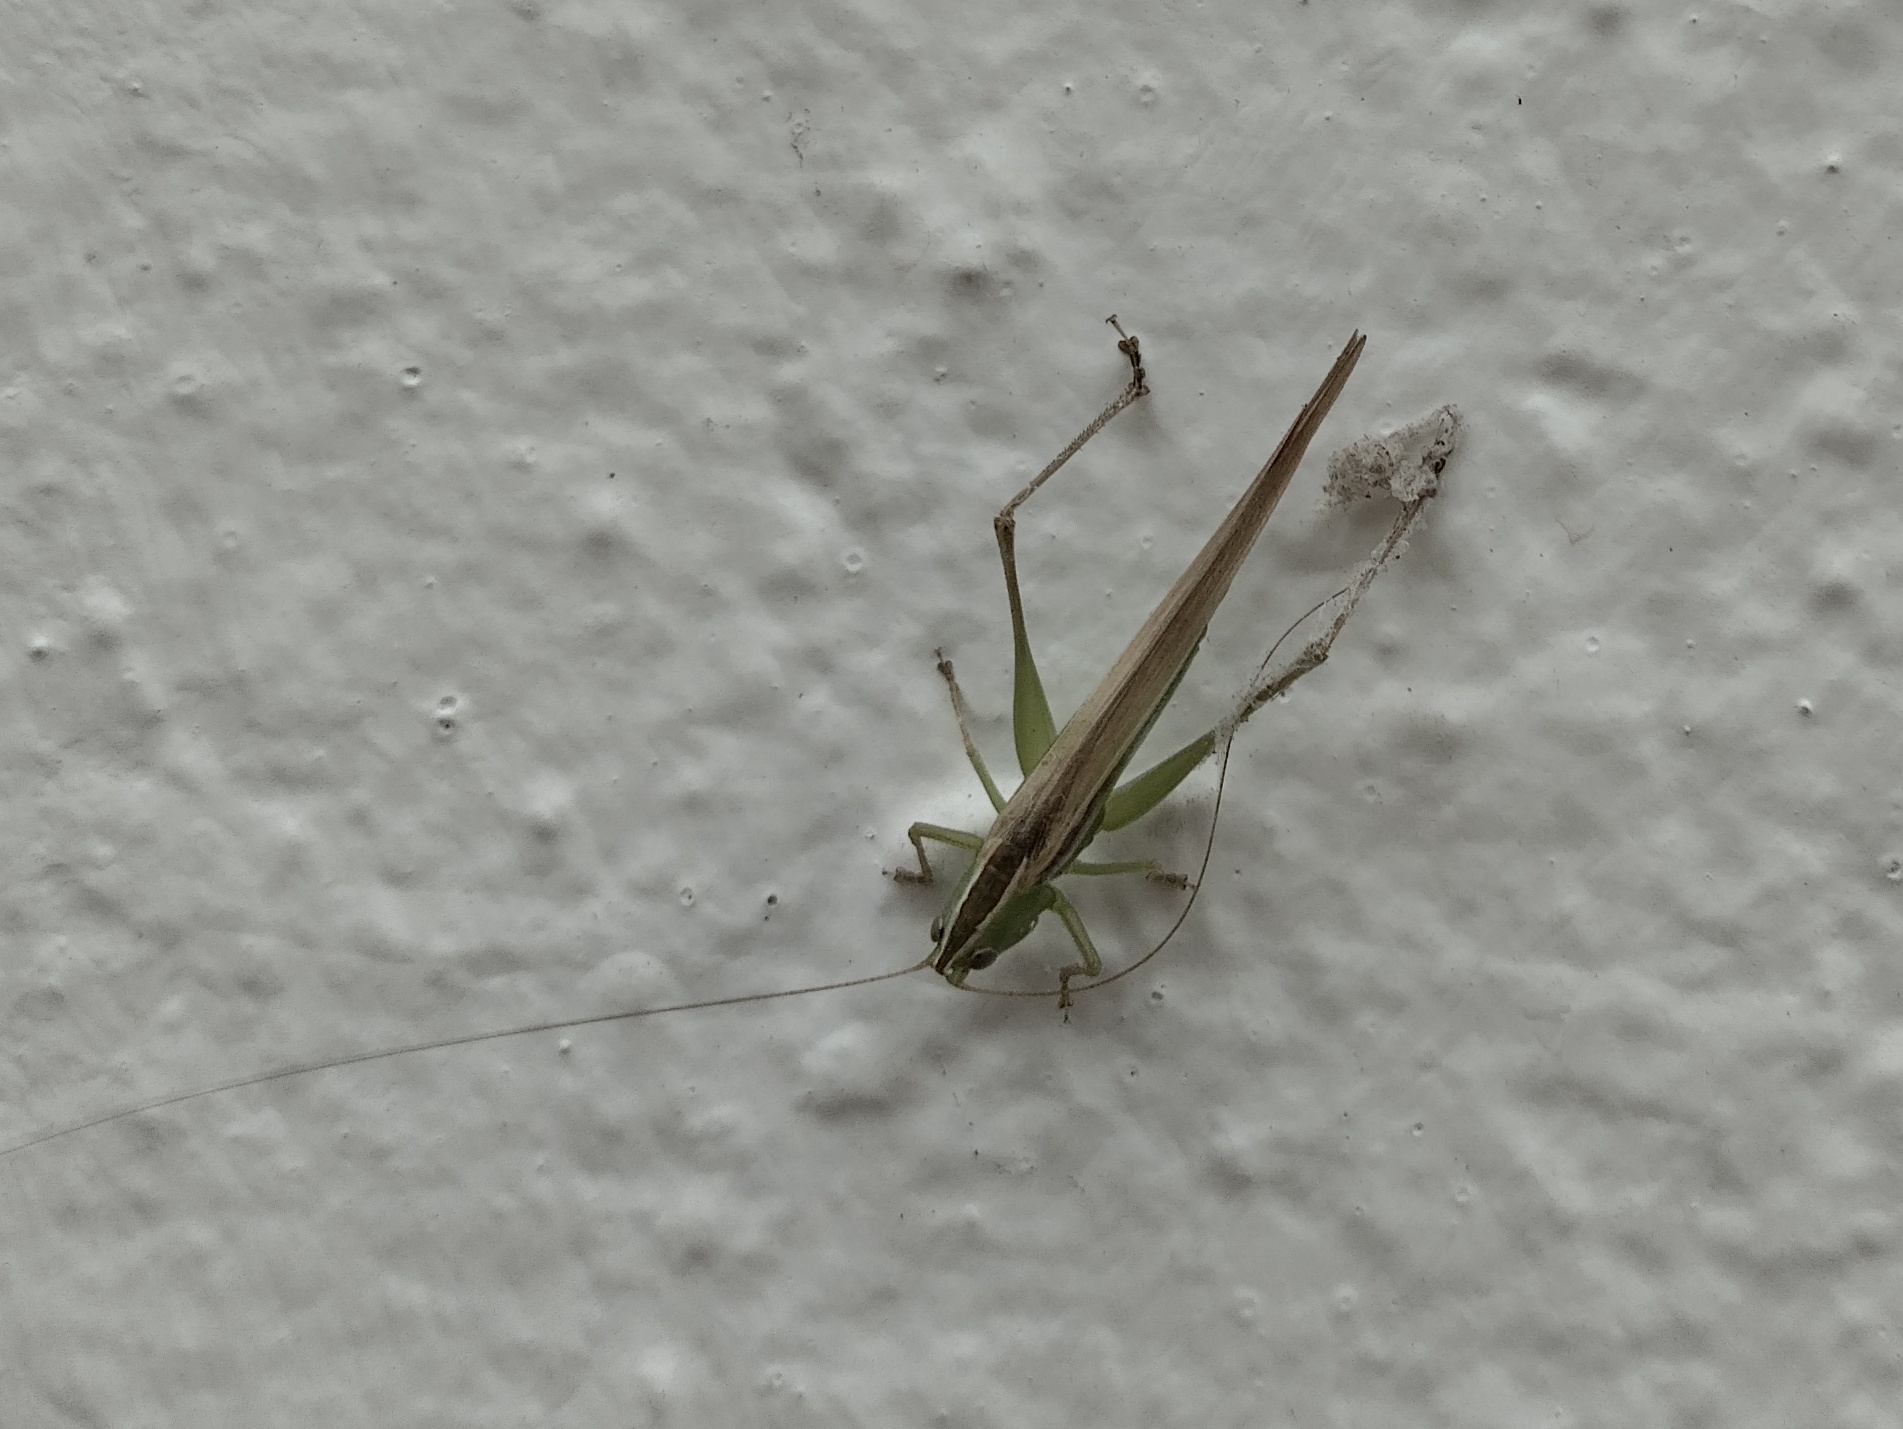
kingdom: Animalia
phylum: Arthropoda
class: Insecta
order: Orthoptera
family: Tettigoniidae
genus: Conocephalus
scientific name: Conocephalus upoluensis
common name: Upolu meadow katydid
